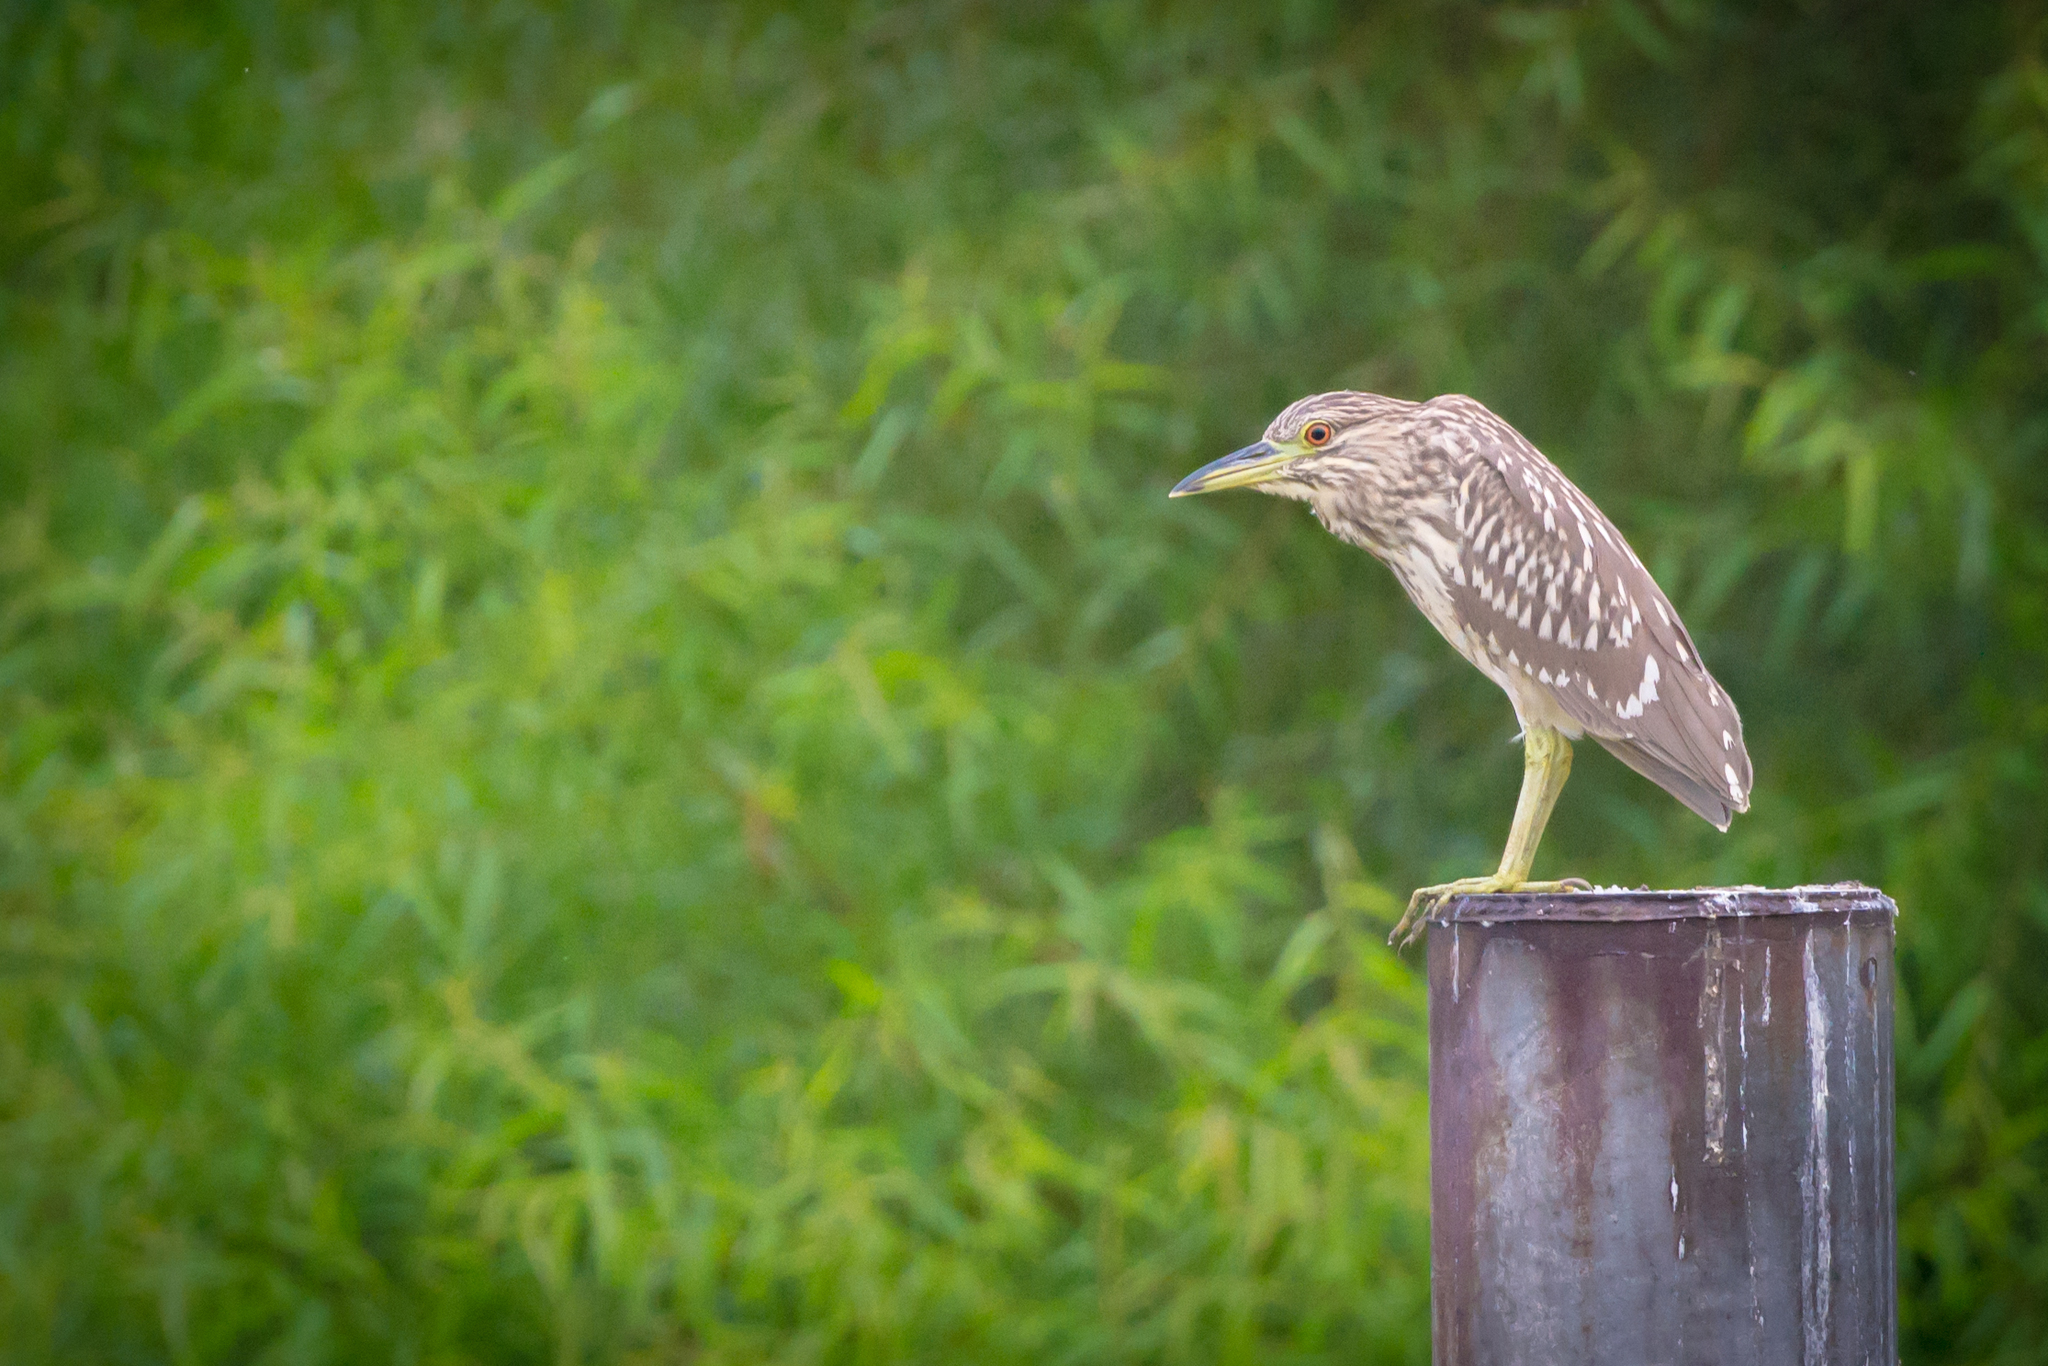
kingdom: Animalia
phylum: Chordata
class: Aves
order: Pelecaniformes
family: Ardeidae
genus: Nycticorax
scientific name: Nycticorax nycticorax
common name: Black-crowned night heron
